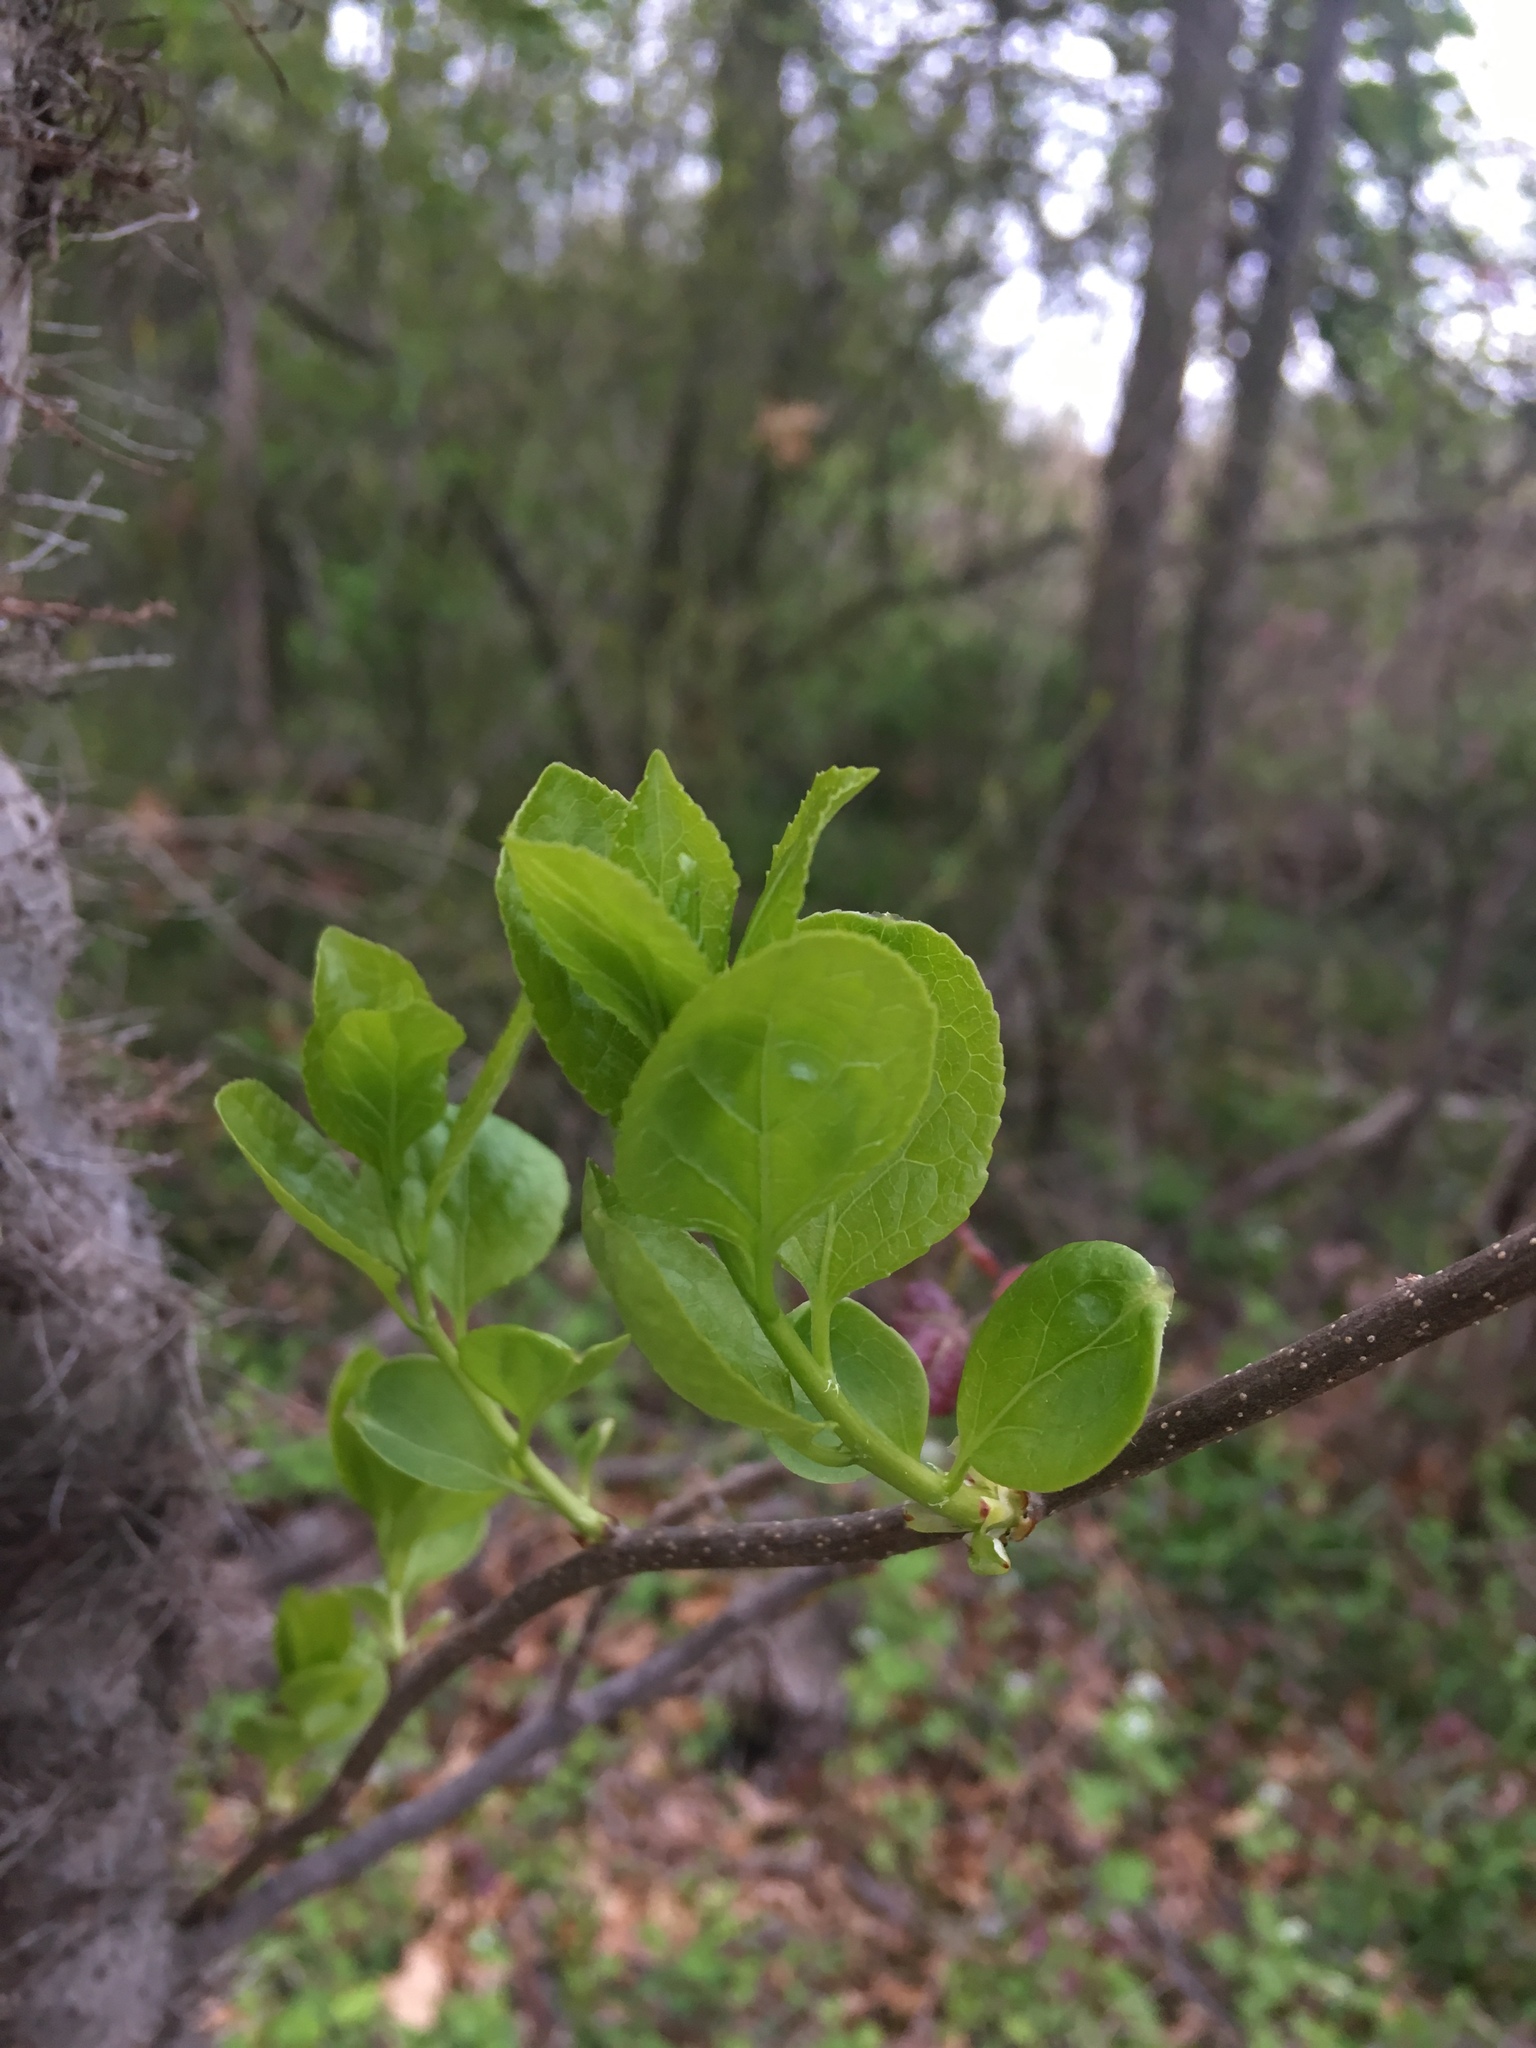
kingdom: Plantae
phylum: Tracheophyta
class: Magnoliopsida
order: Celastrales
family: Celastraceae
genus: Celastrus
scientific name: Celastrus orbiculatus
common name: Oriental bittersweet
